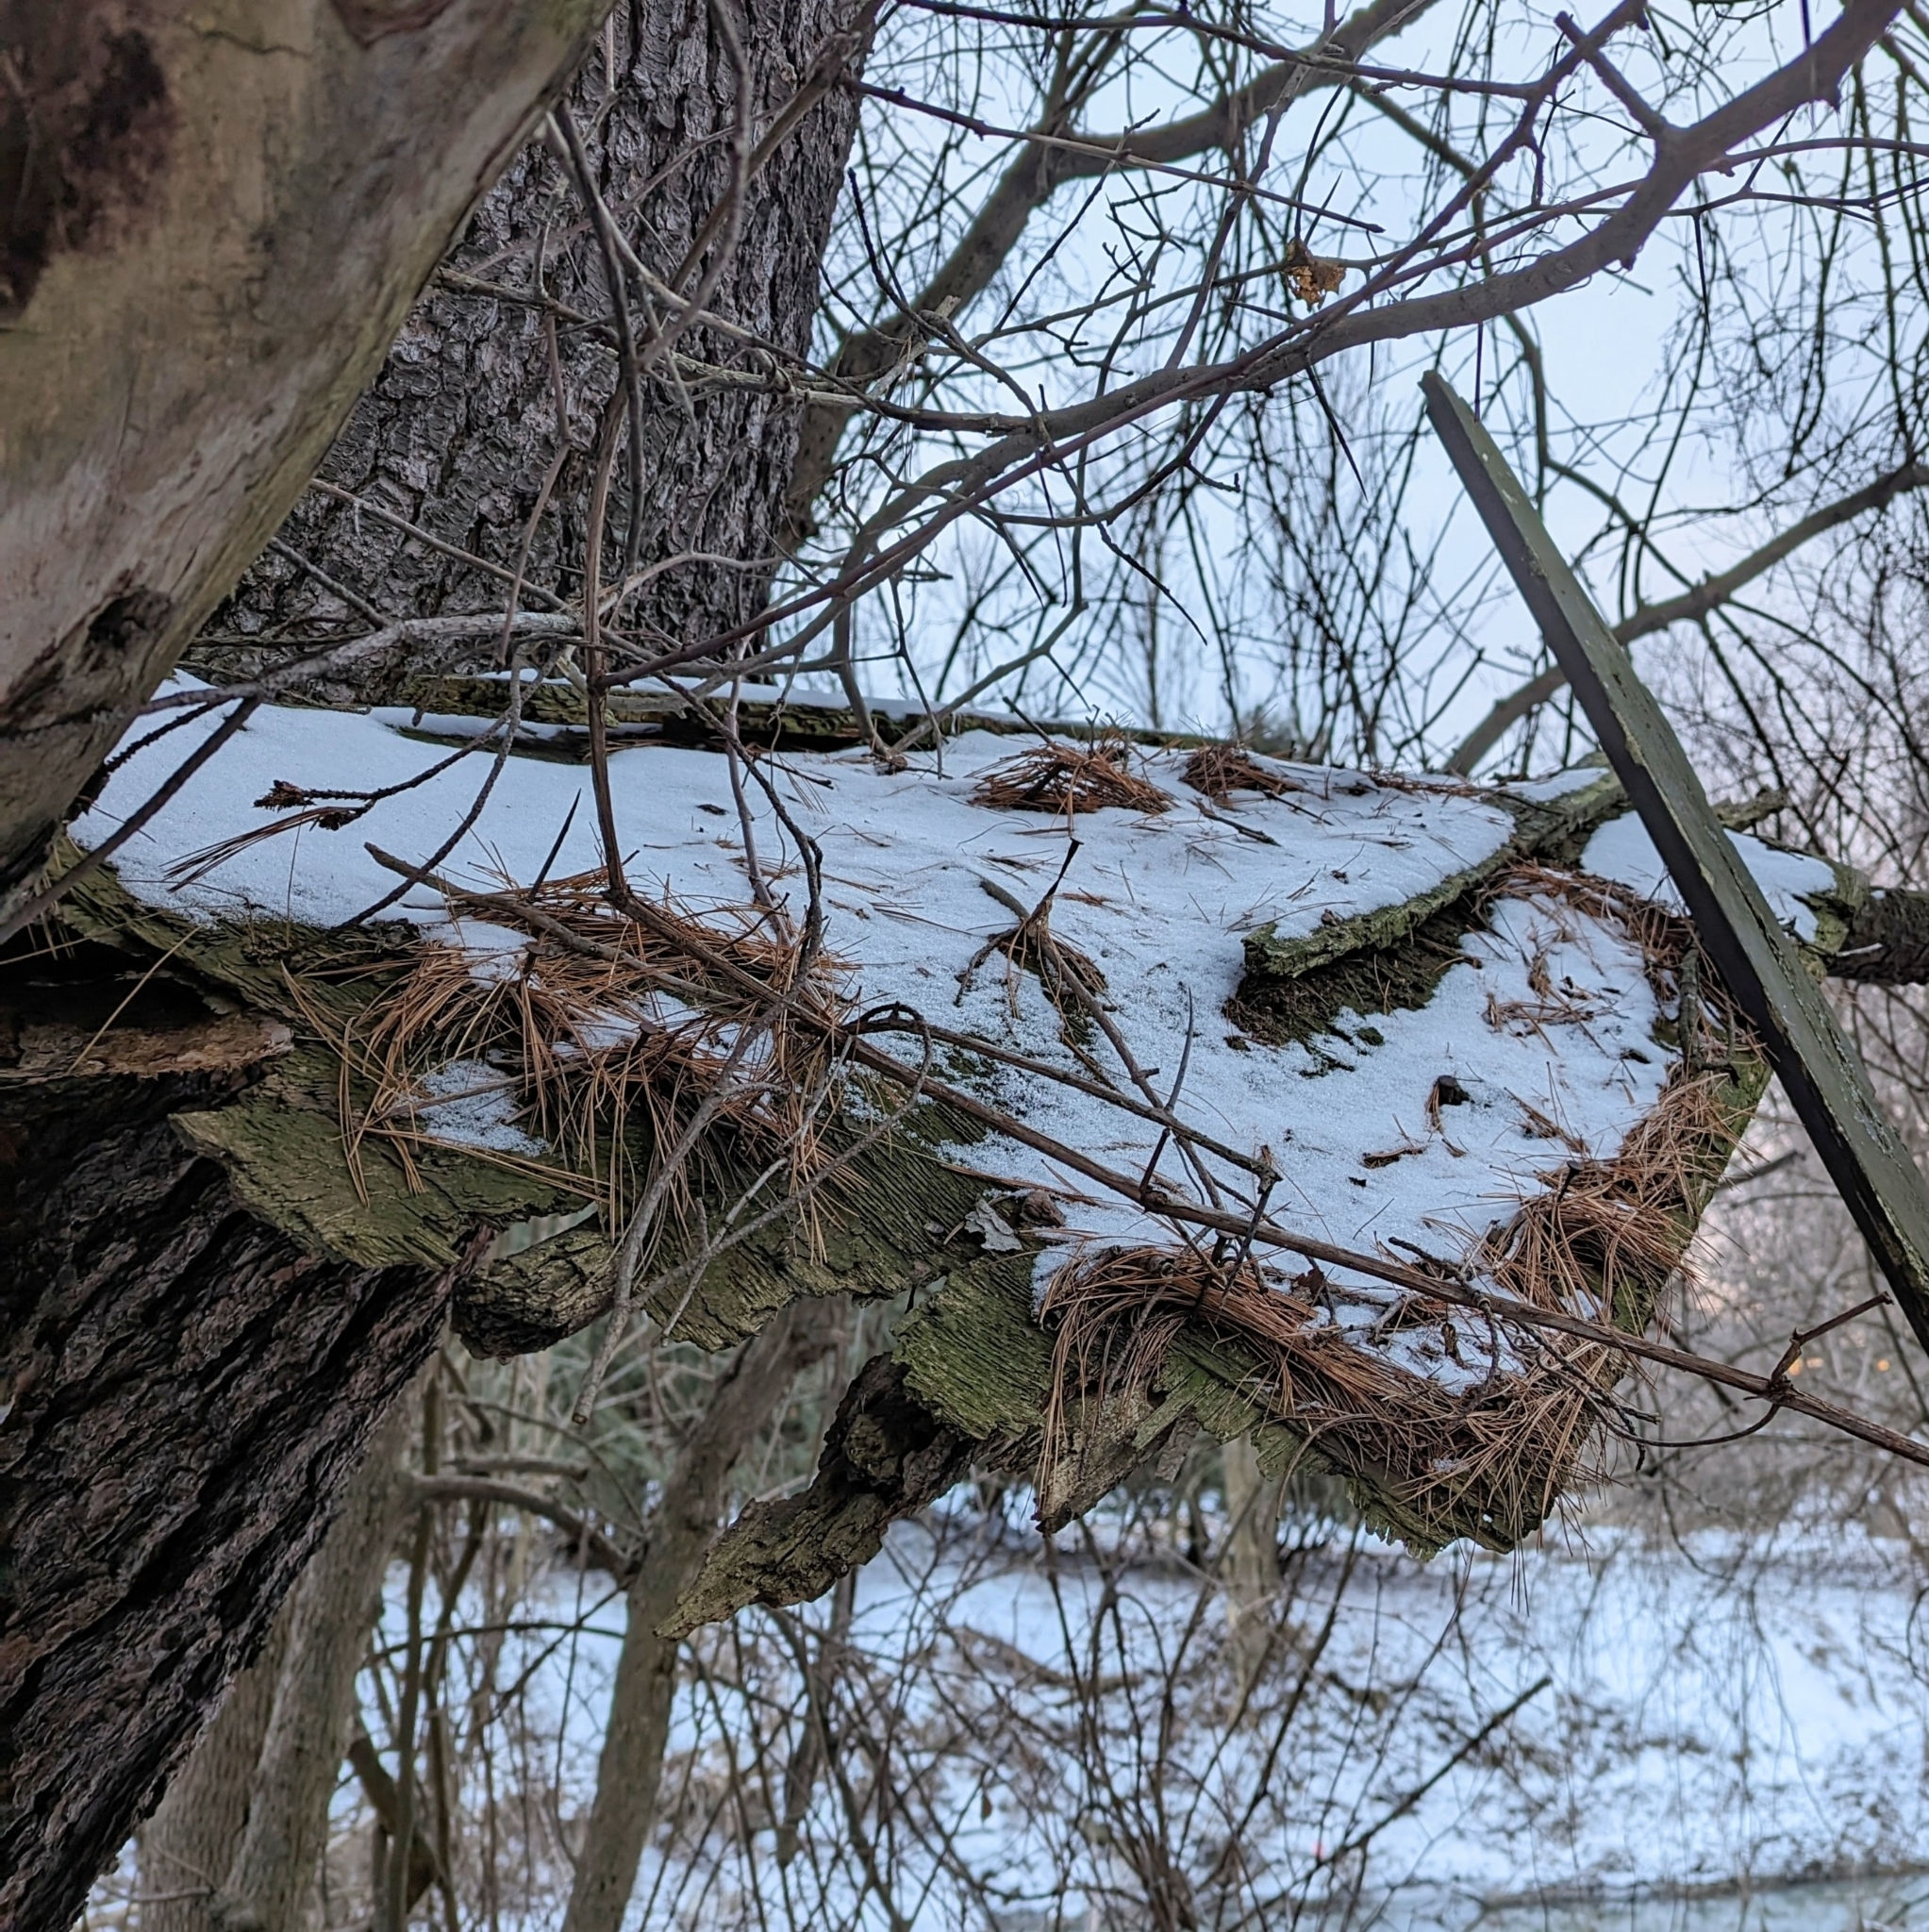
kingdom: Plantae
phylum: Tracheophyta
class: Pinopsida
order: Pinales
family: Pinaceae
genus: Pinus
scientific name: Pinus strobus
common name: Weymouth pine
